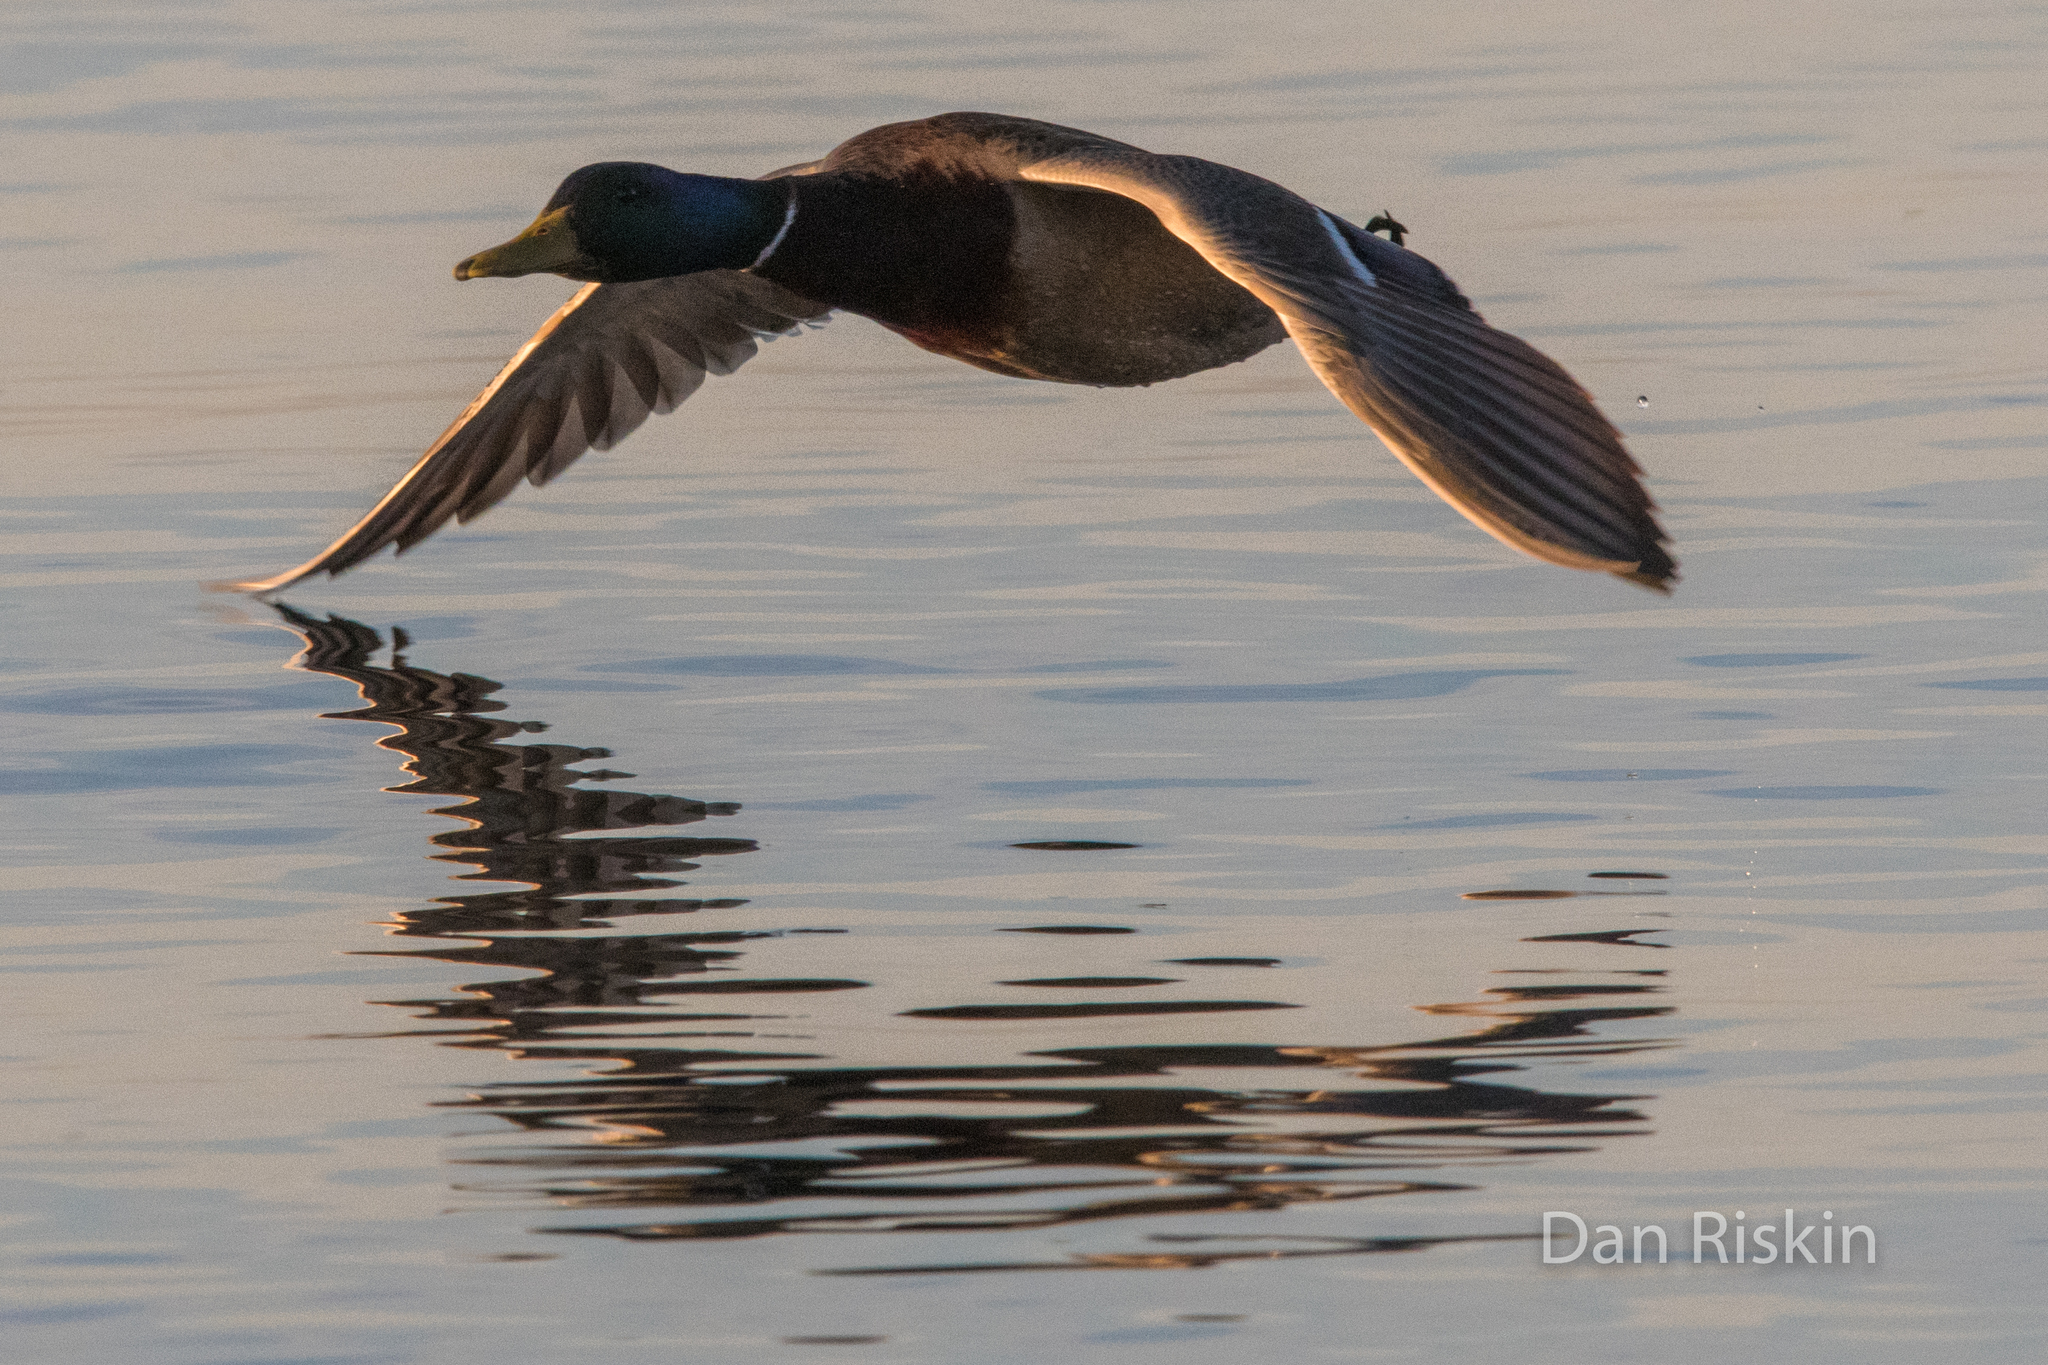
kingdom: Animalia
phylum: Chordata
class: Aves
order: Anseriformes
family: Anatidae
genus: Anas
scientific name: Anas platyrhynchos
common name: Mallard
